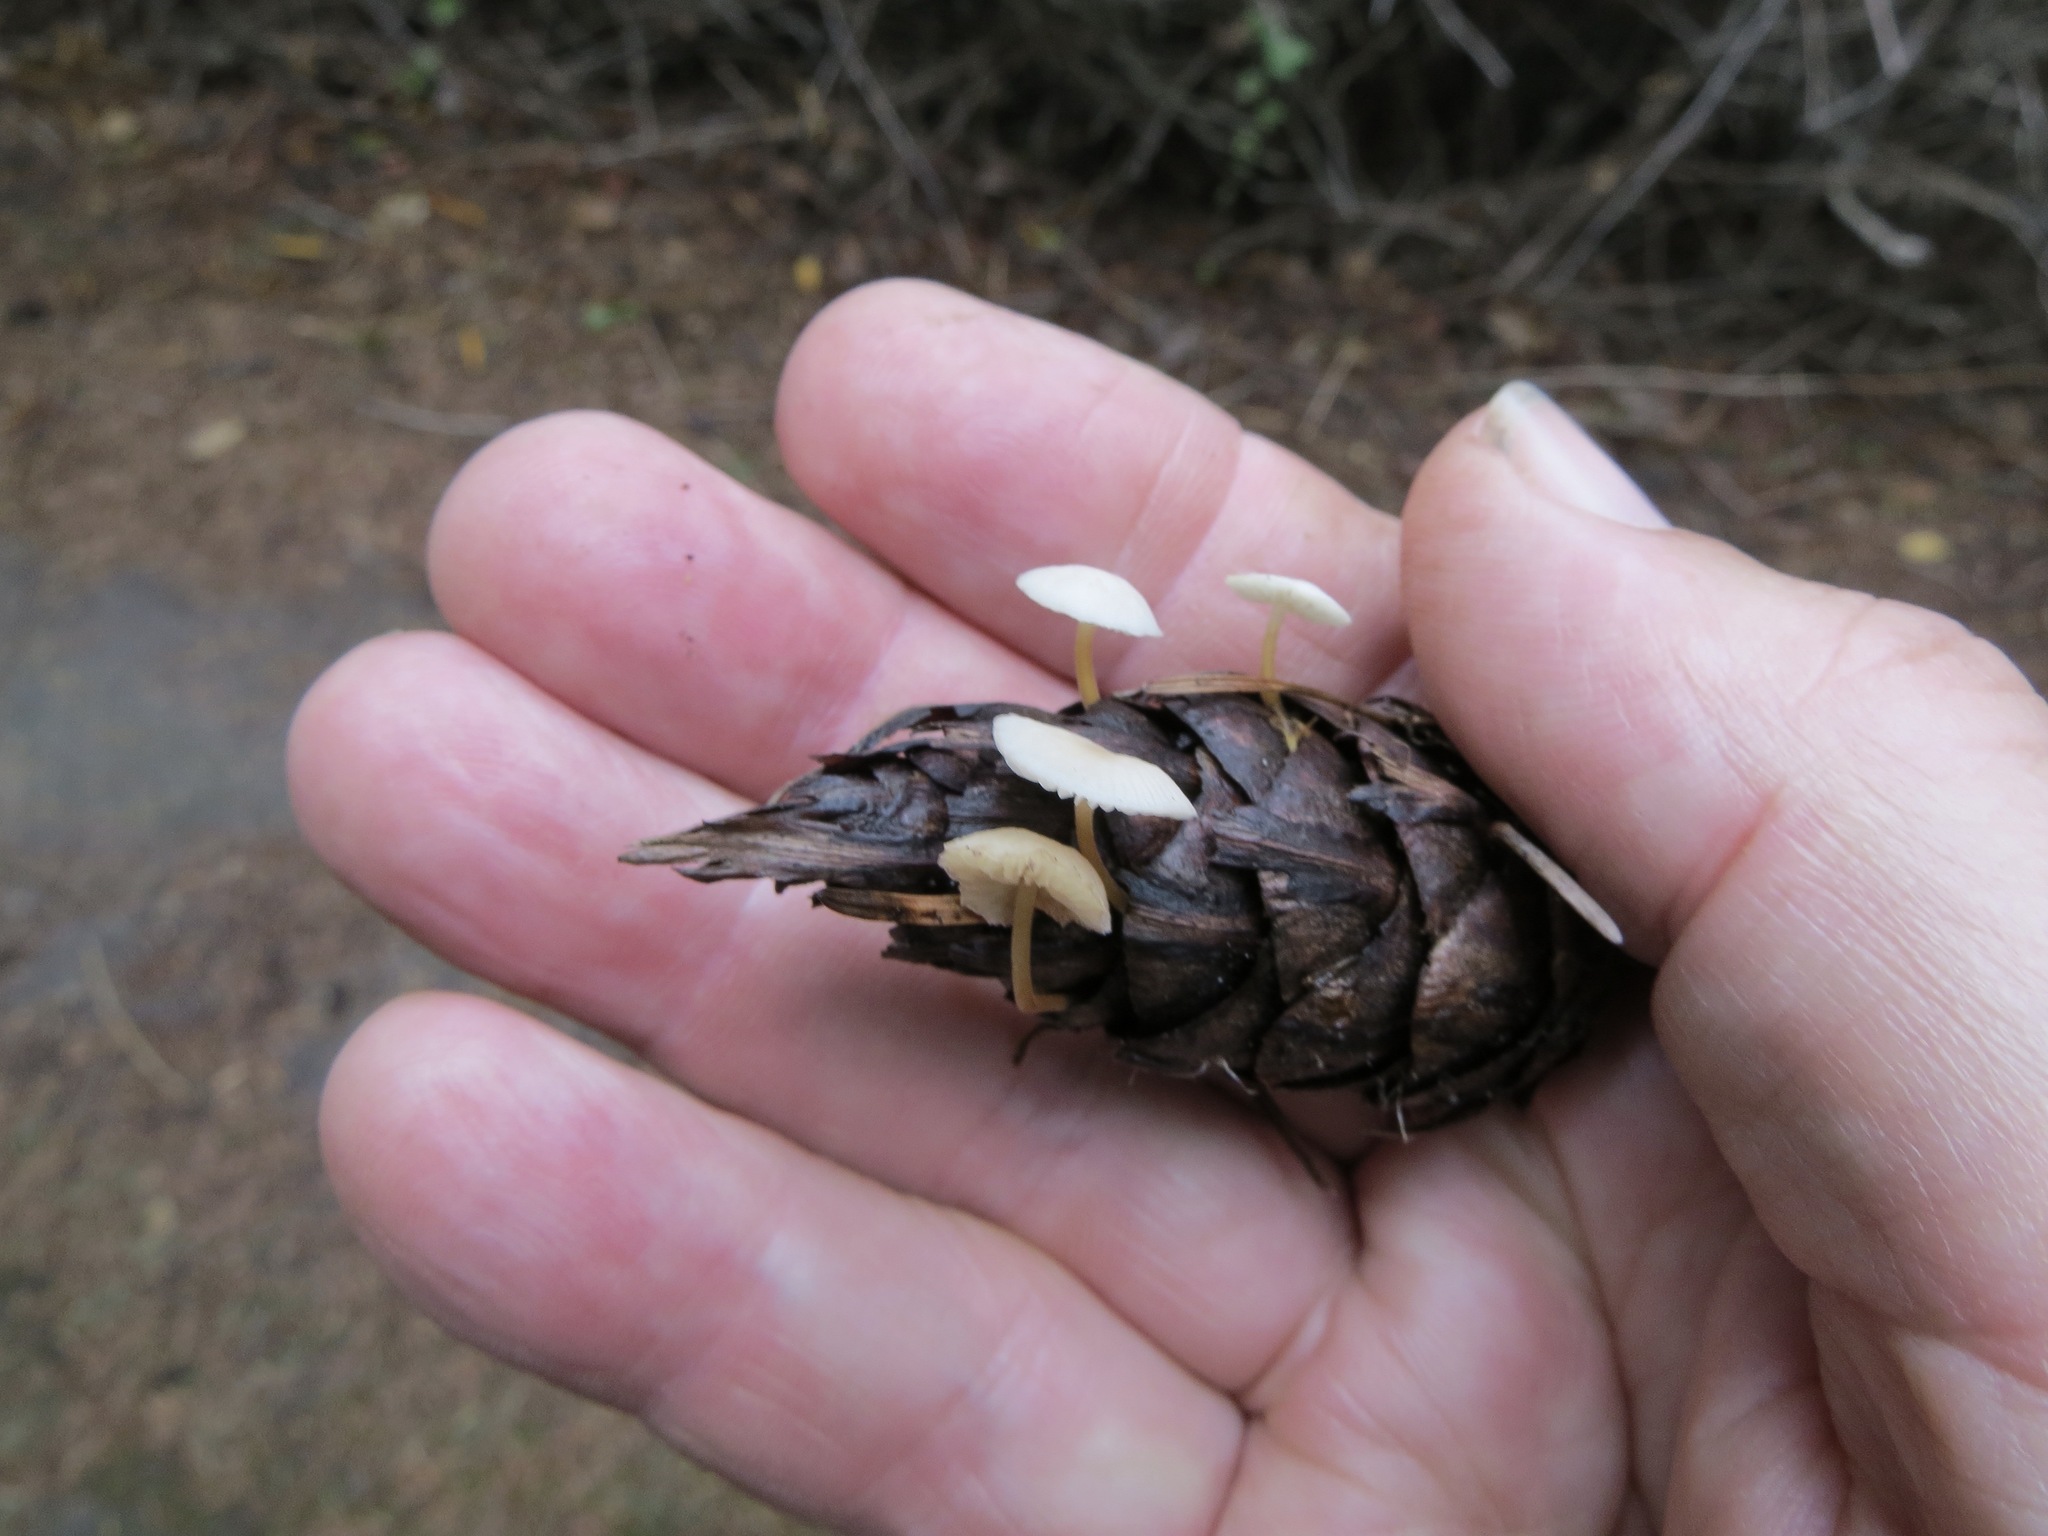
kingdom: Fungi
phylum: Basidiomycota
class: Agaricomycetes
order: Agaricales
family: Physalacriaceae
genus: Strobilurus
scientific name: Strobilurus trullisatus
